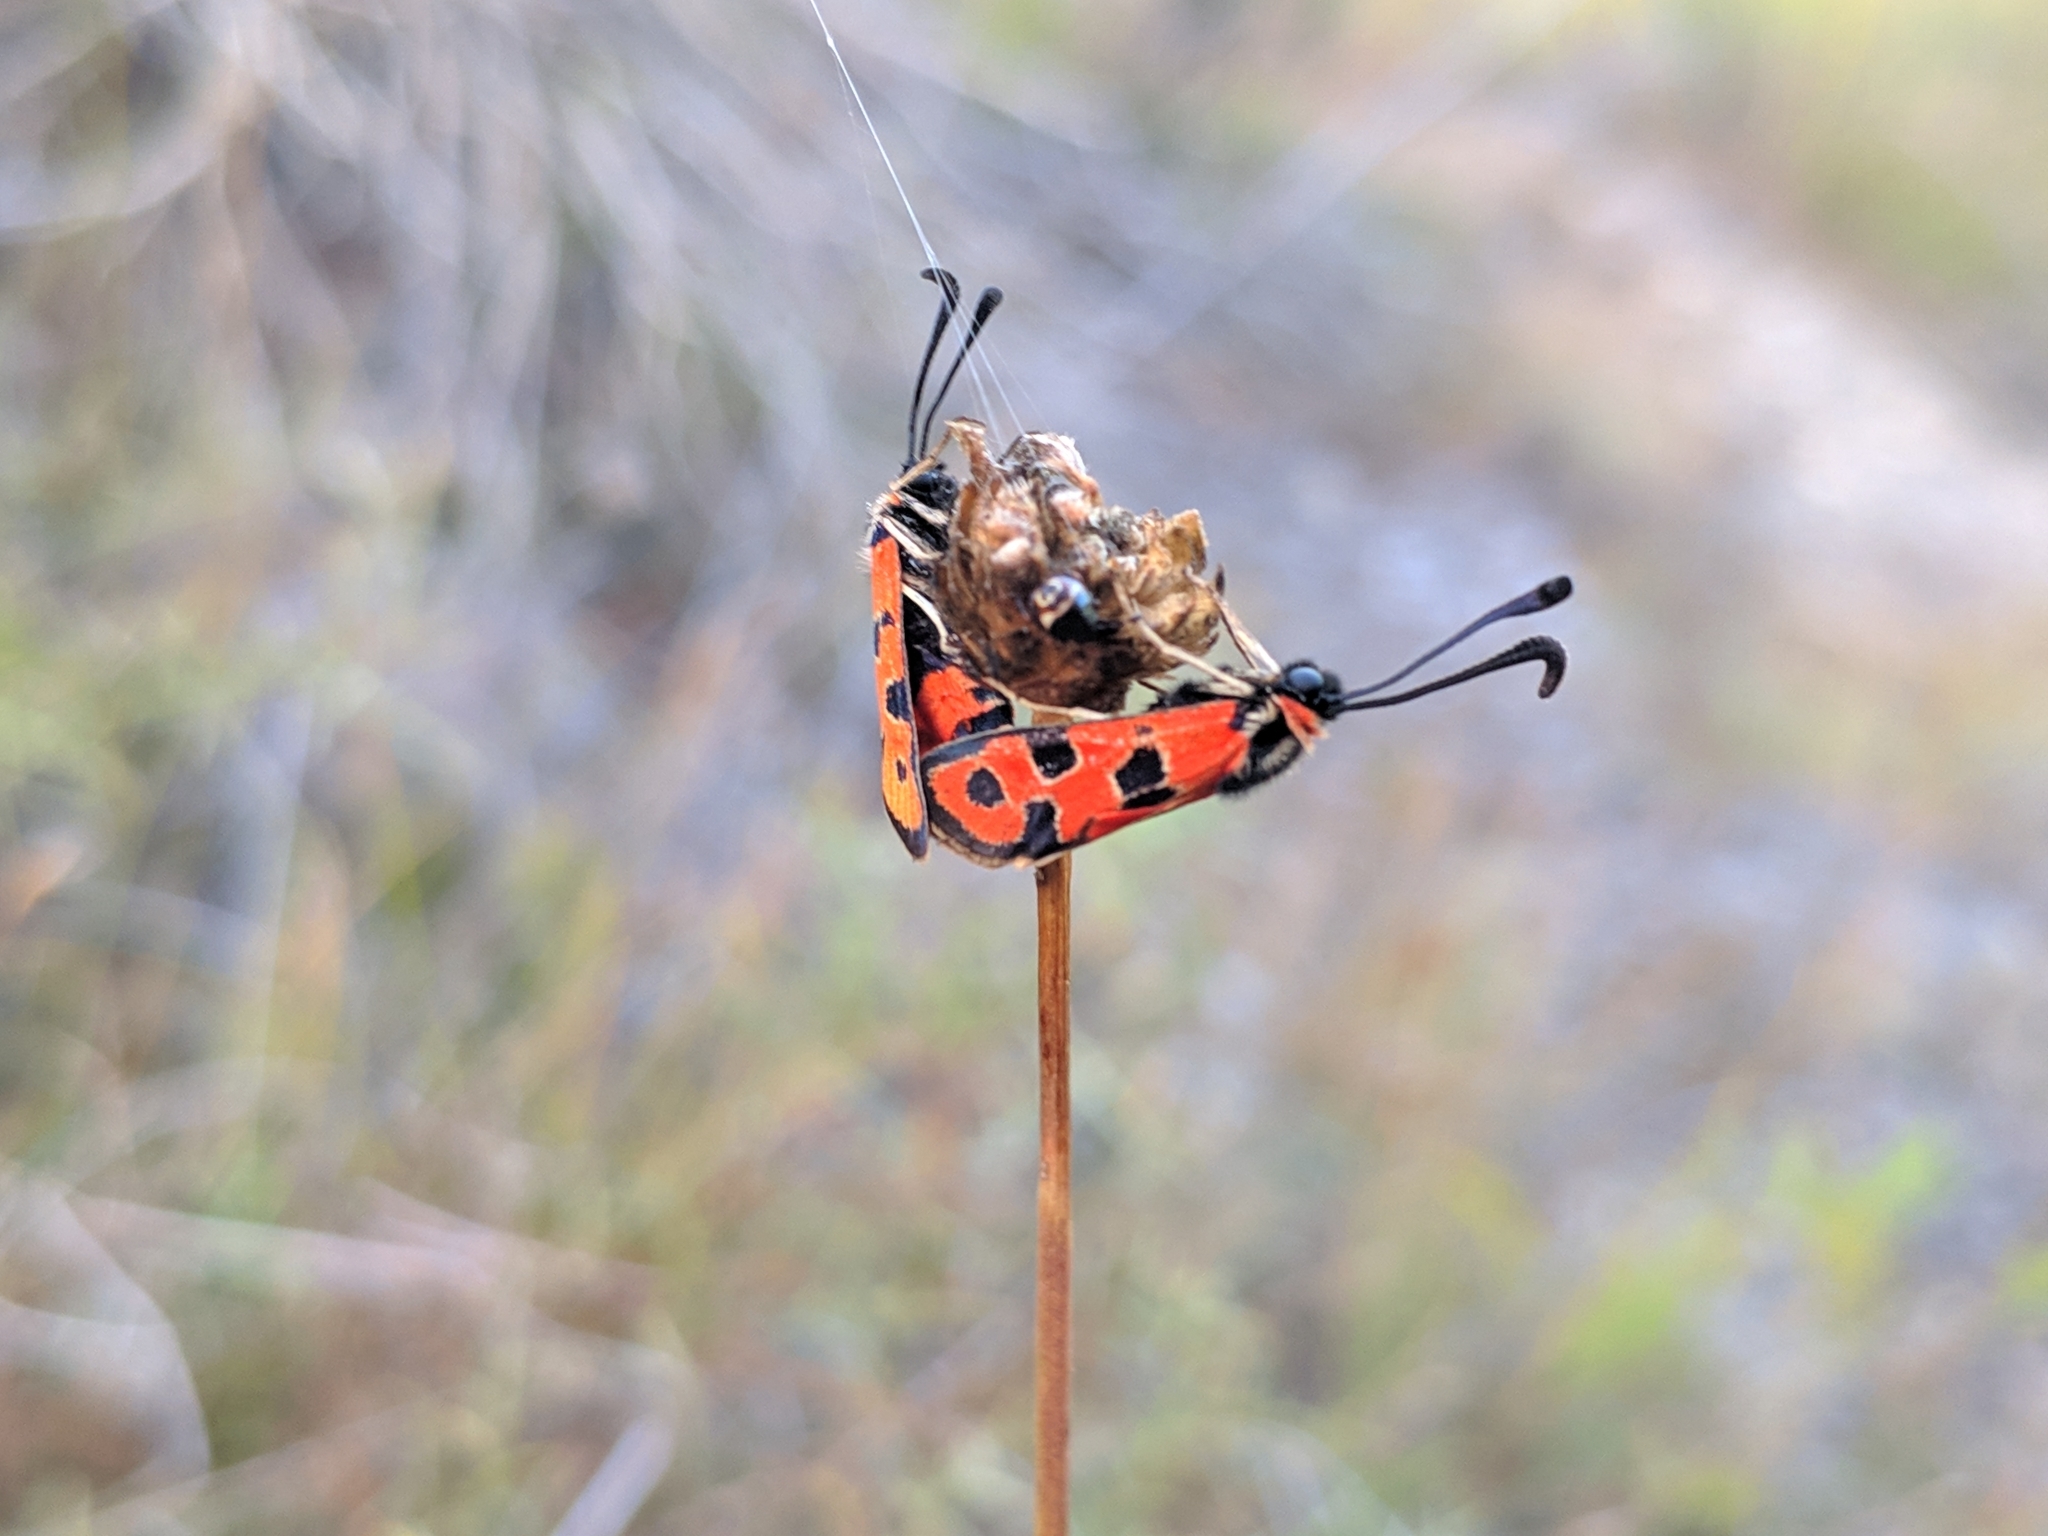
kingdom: Animalia
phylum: Arthropoda
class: Insecta
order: Lepidoptera
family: Zygaenidae
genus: Zygaena
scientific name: Zygaena fausta
